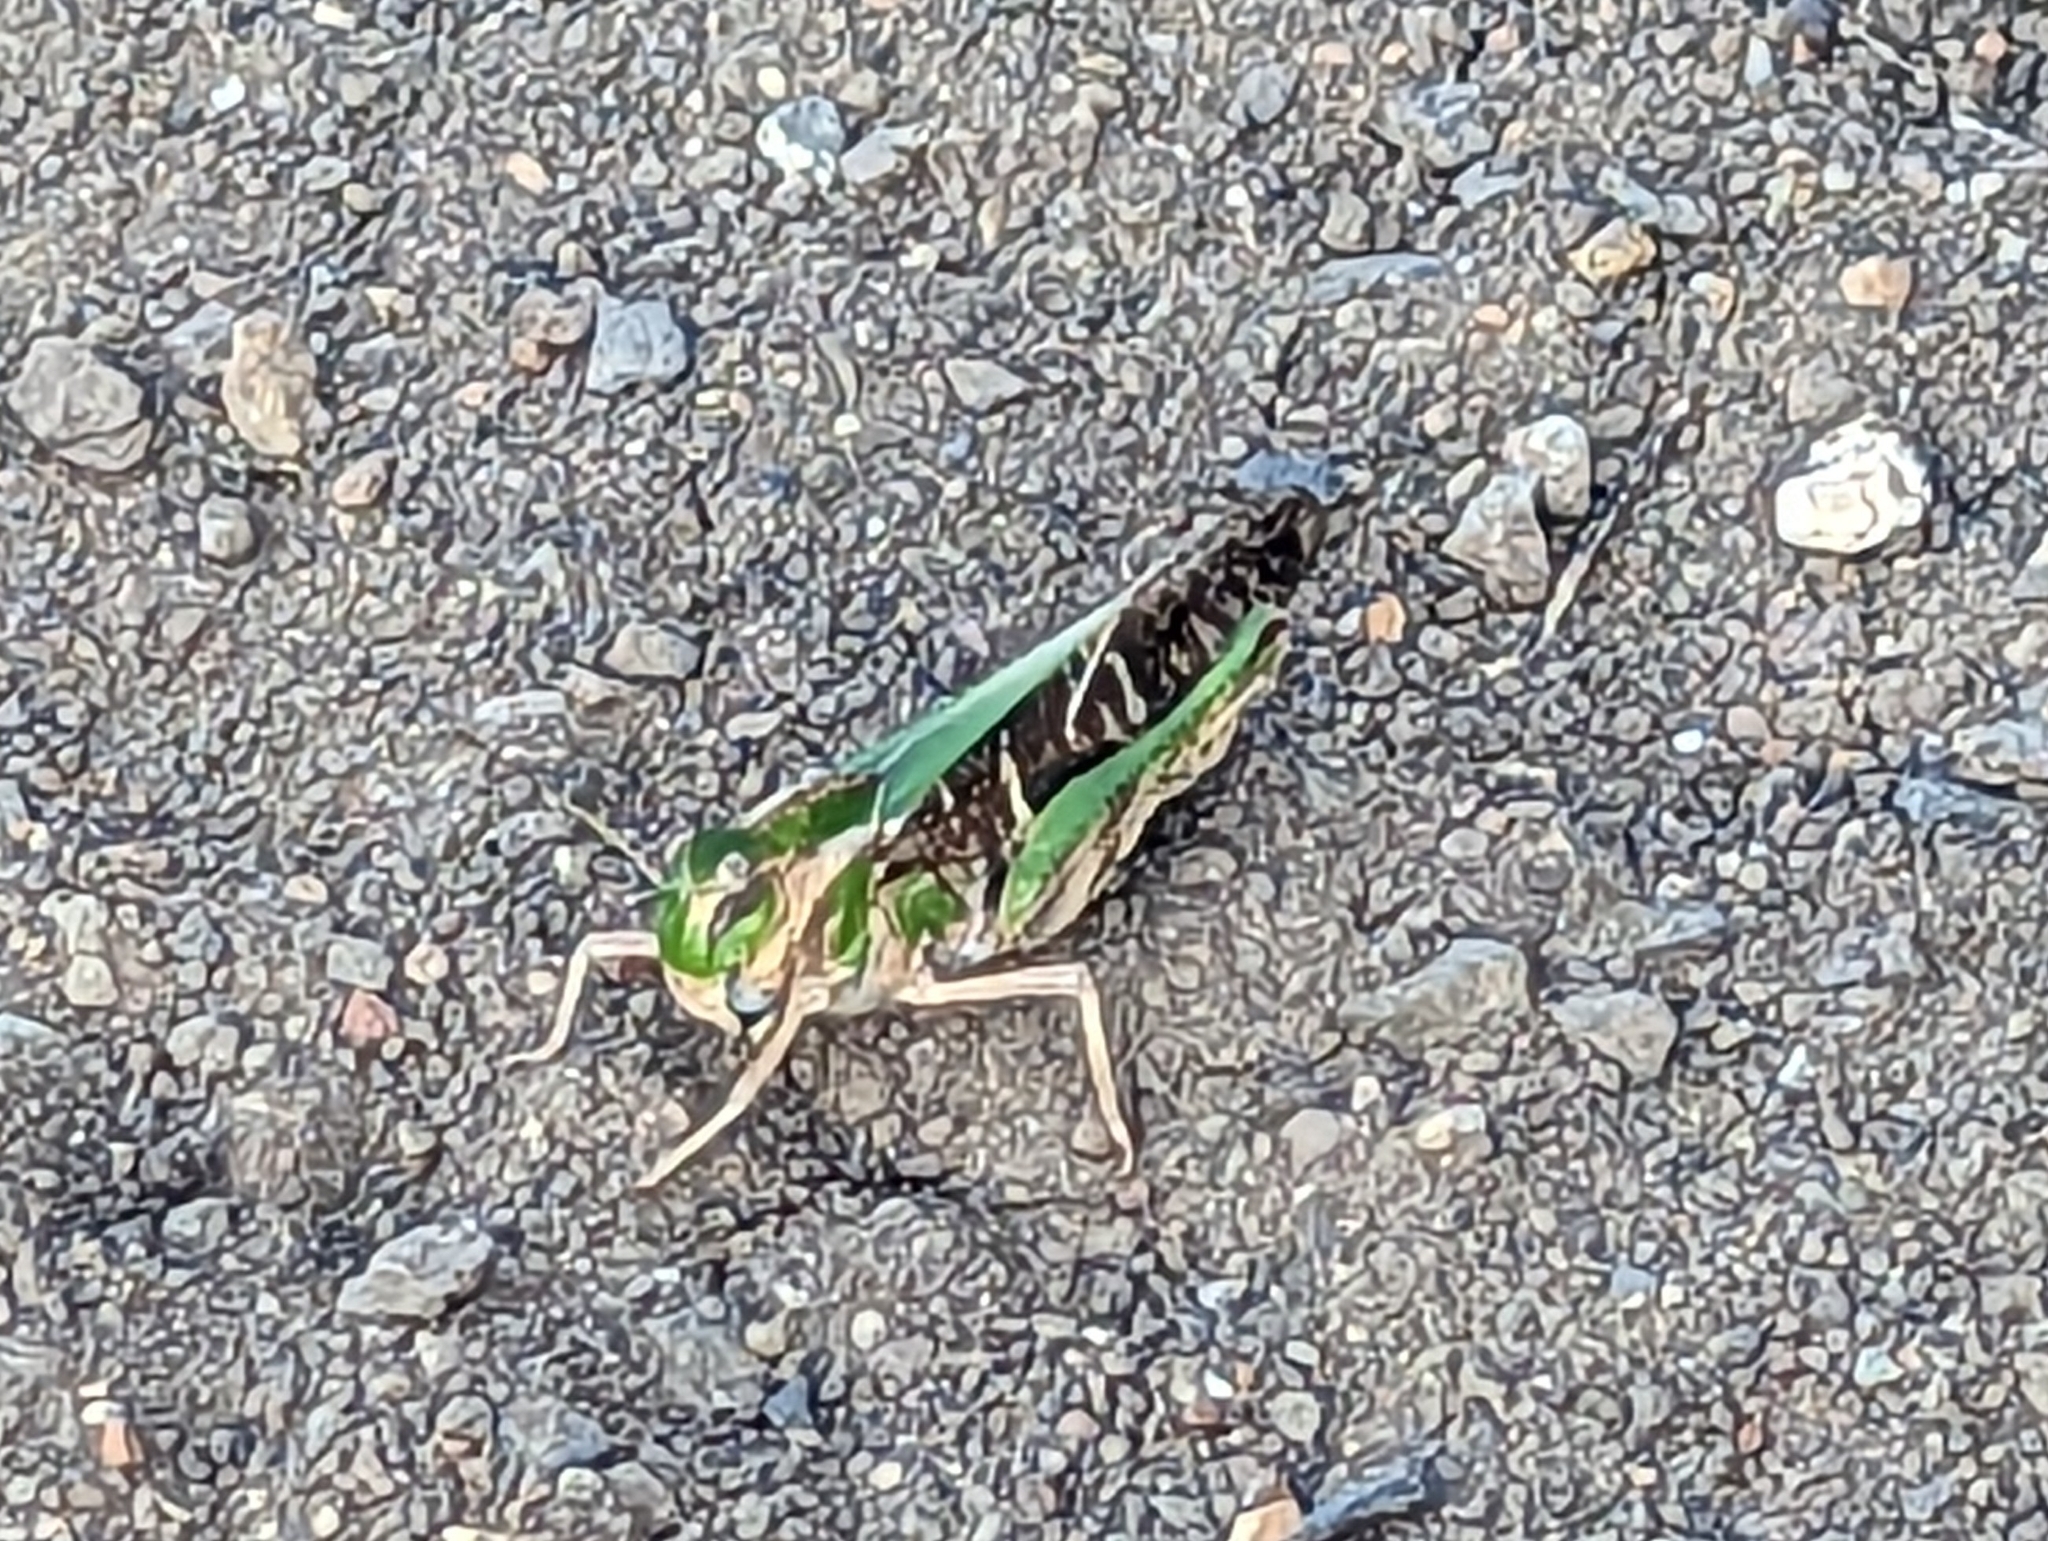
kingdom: Animalia
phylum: Arthropoda
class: Insecta
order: Orthoptera
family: Acrididae
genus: Gastrimargus
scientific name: Gastrimargus musicus
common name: Yellow-winged locust
